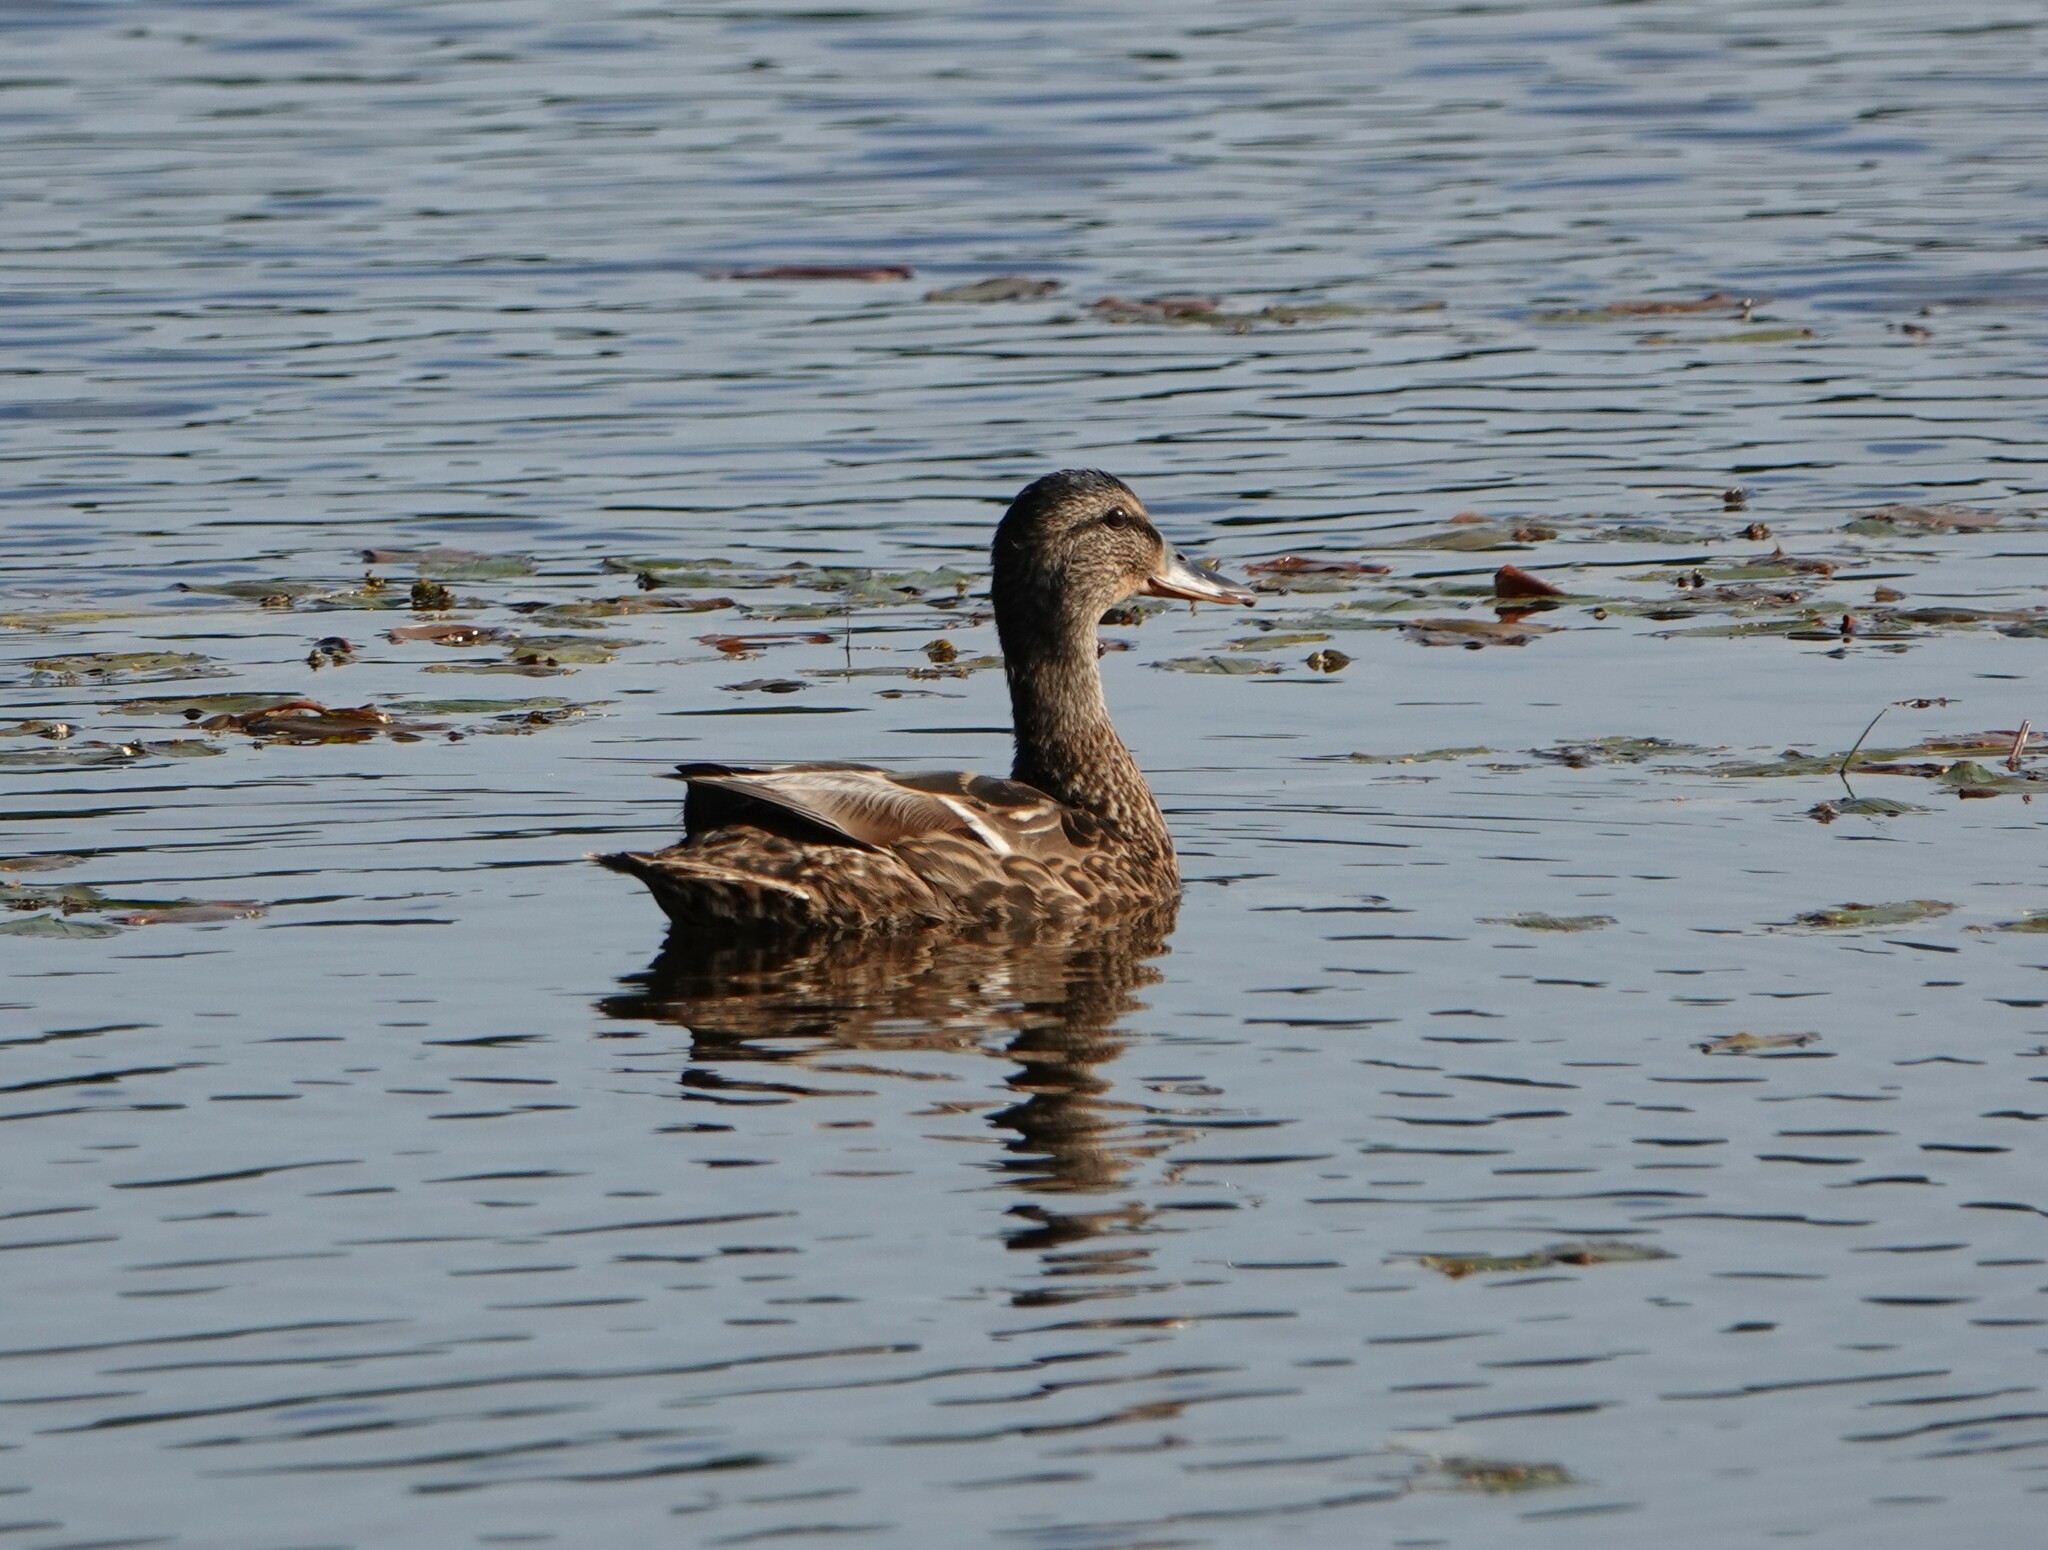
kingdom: Animalia
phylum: Chordata
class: Aves
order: Anseriformes
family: Anatidae
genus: Anas
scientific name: Anas platyrhynchos
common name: Mallard
